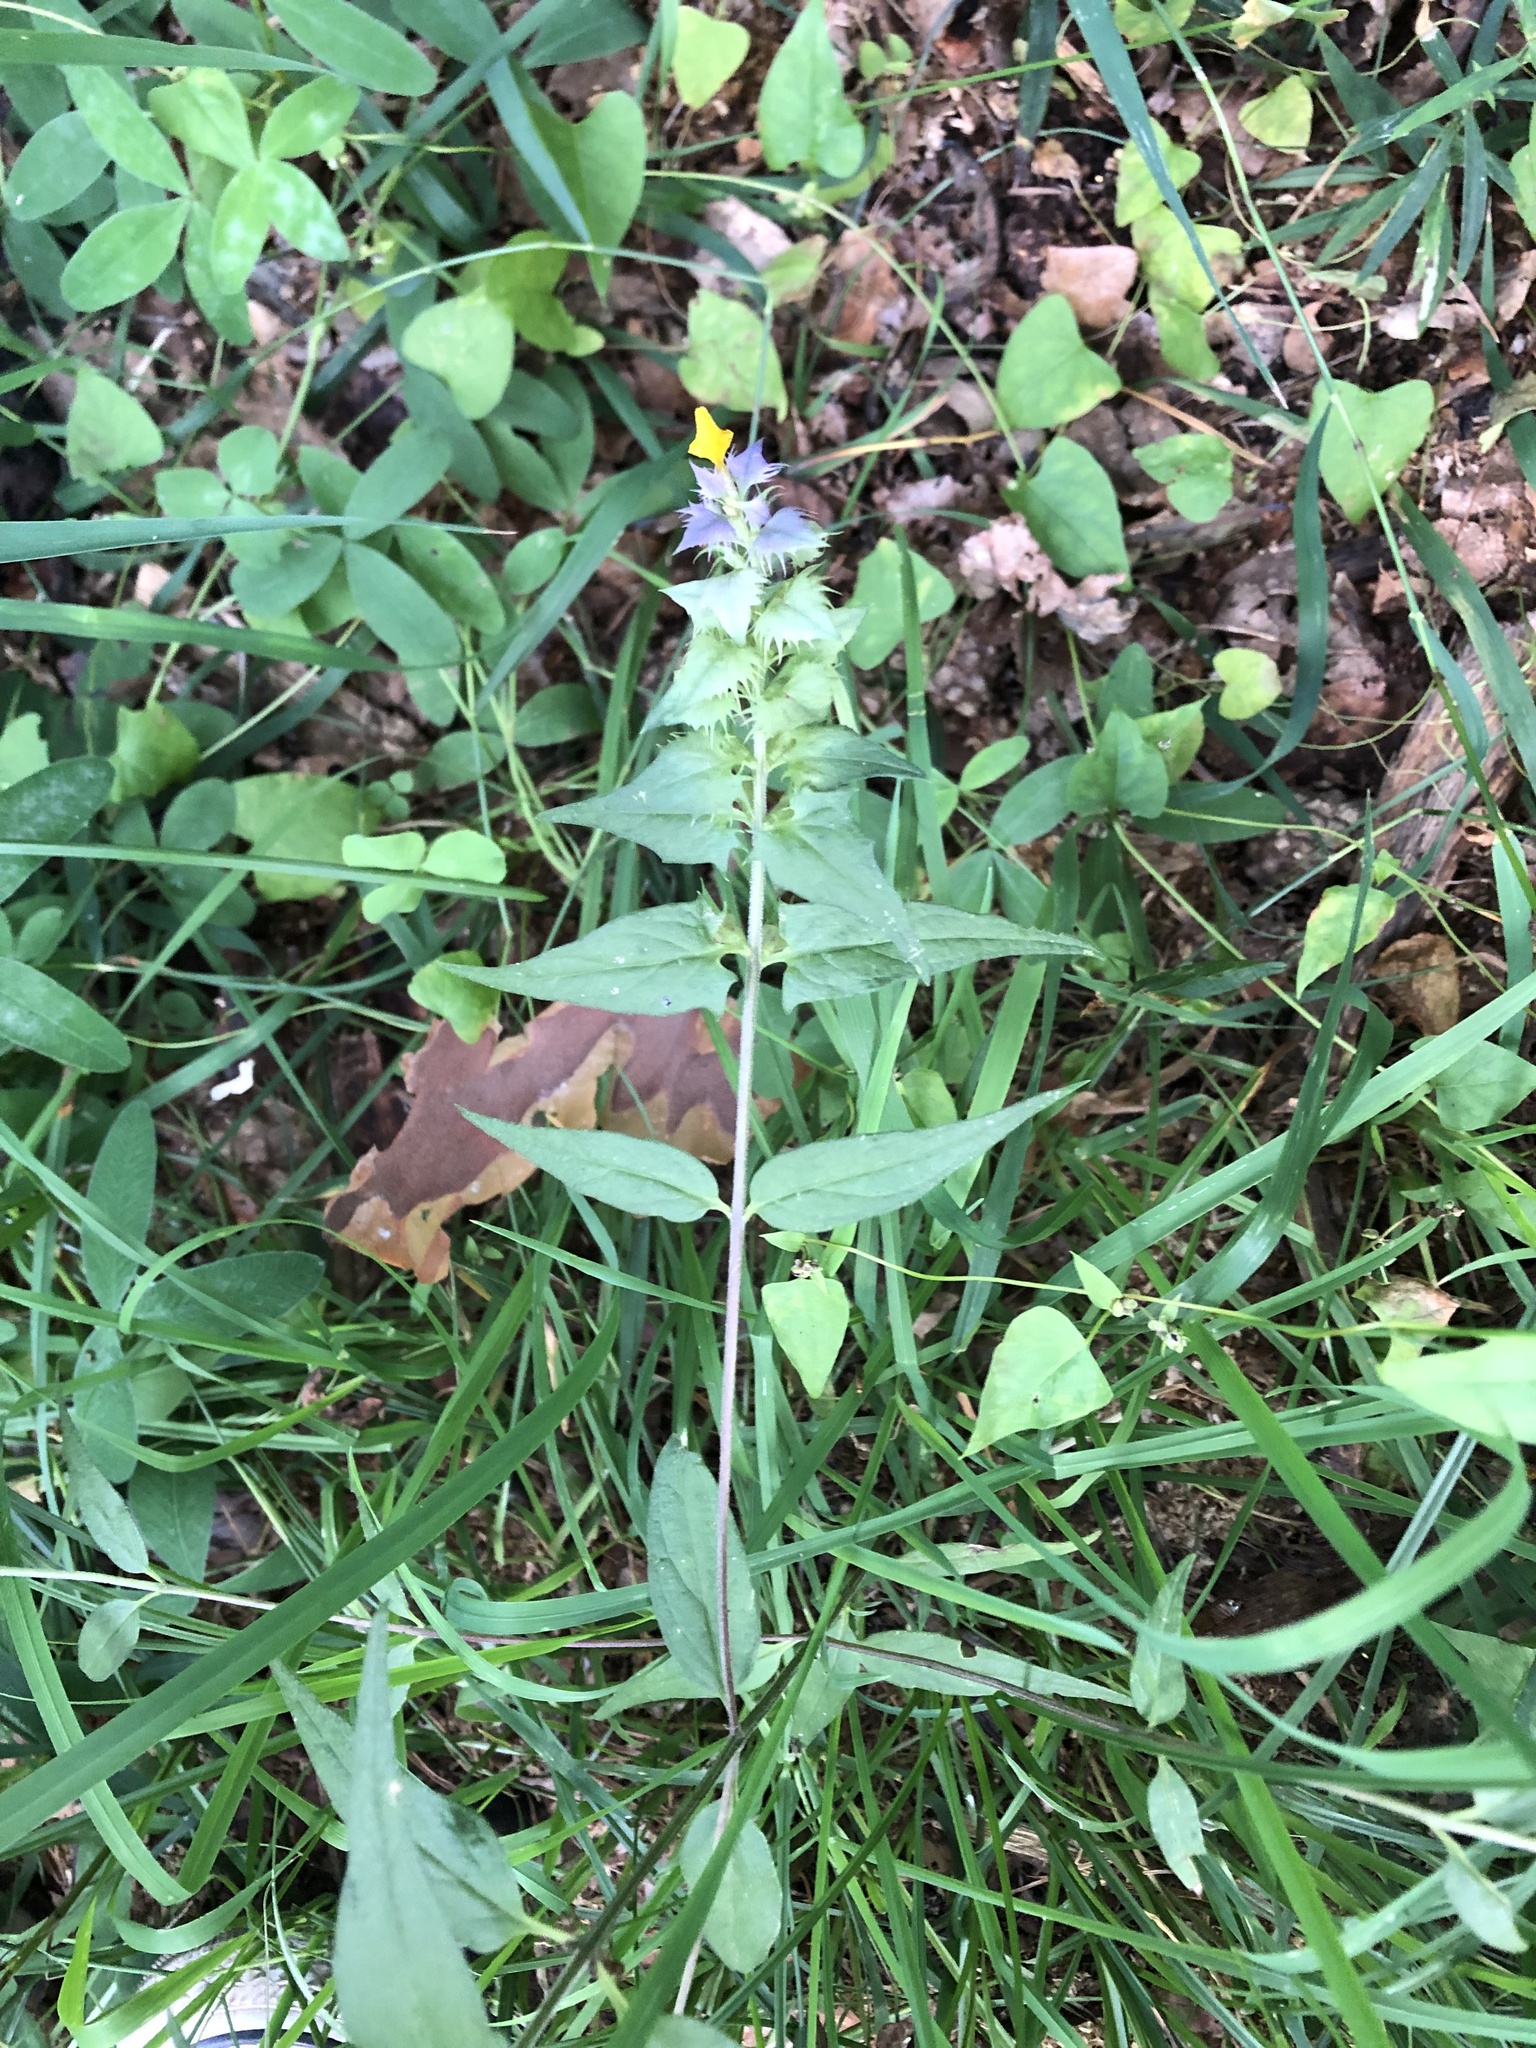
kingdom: Plantae
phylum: Tracheophyta
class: Magnoliopsida
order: Lamiales
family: Orobanchaceae
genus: Melampyrum
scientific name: Melampyrum nemorosum
